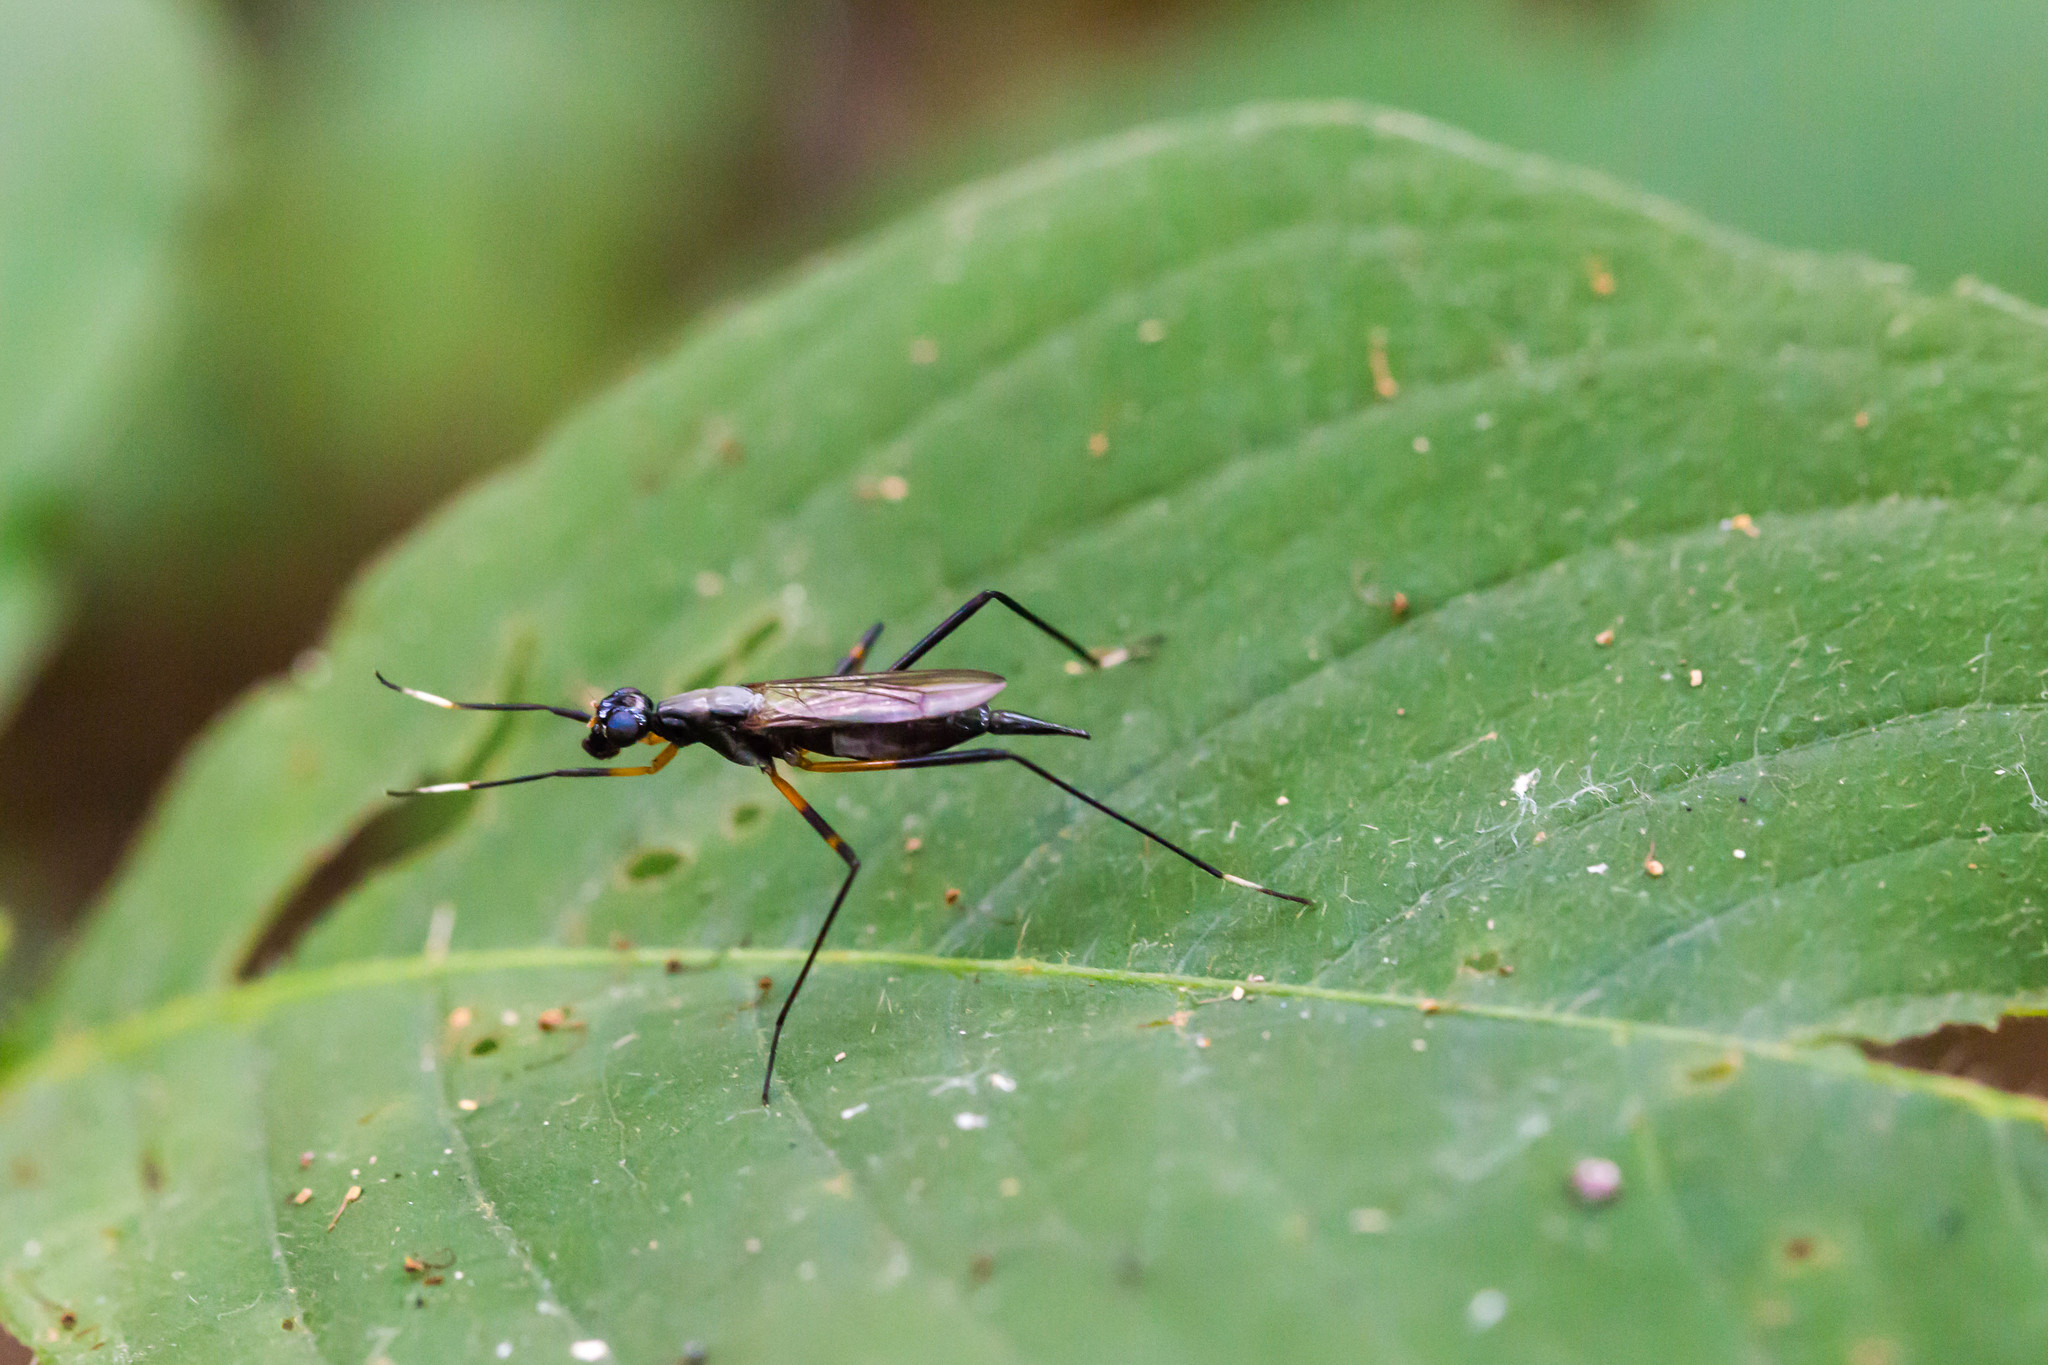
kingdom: Animalia
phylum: Arthropoda
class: Insecta
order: Diptera
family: Micropezidae
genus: Calobatina
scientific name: Calobatina geometra
